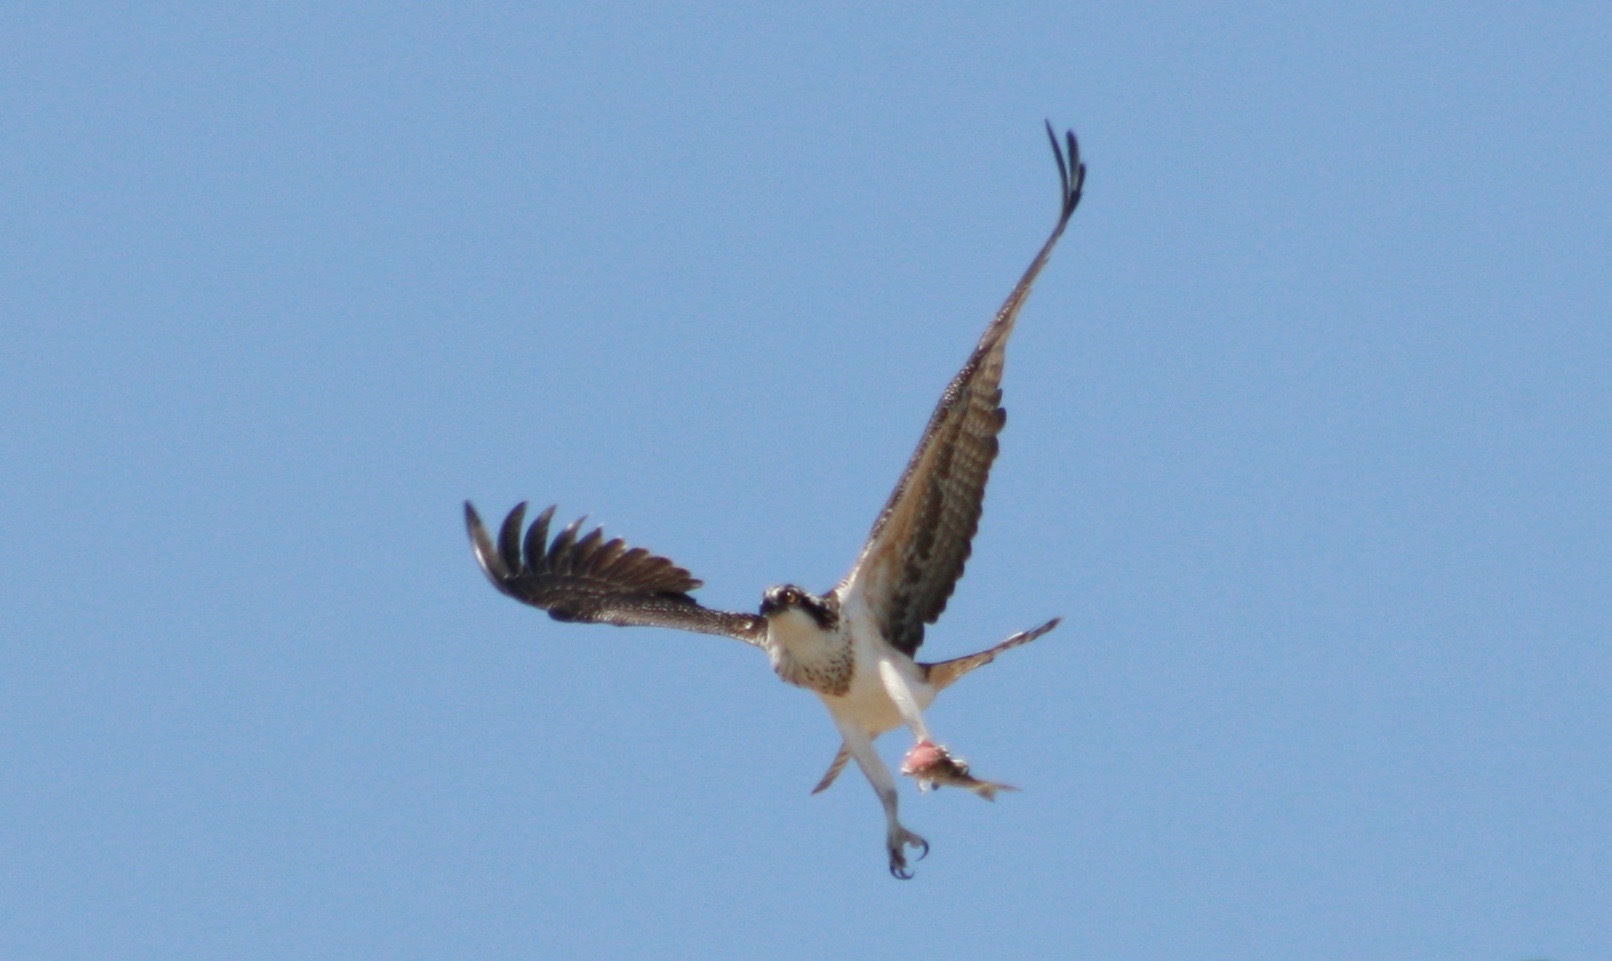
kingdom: Animalia
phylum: Chordata
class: Aves
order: Accipitriformes
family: Pandionidae
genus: Pandion
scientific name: Pandion haliaetus
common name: Osprey
